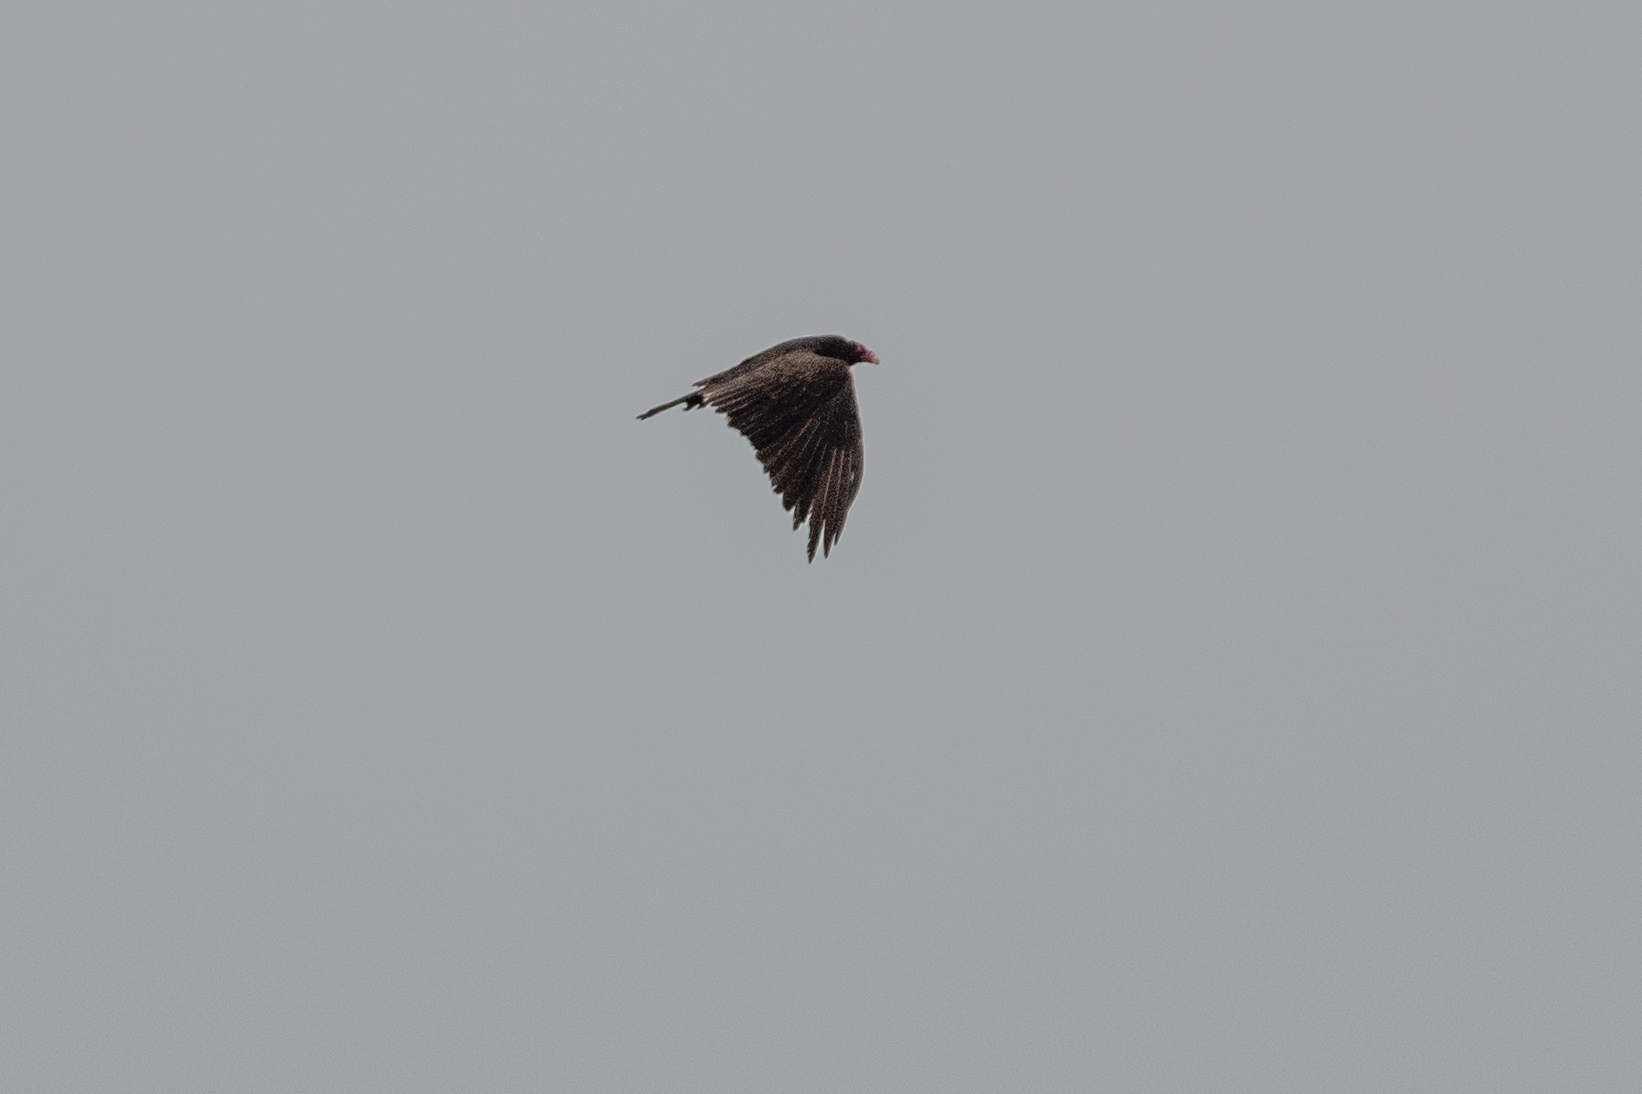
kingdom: Animalia
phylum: Chordata
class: Aves
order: Accipitriformes
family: Cathartidae
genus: Cathartes
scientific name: Cathartes aura
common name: Turkey vulture
